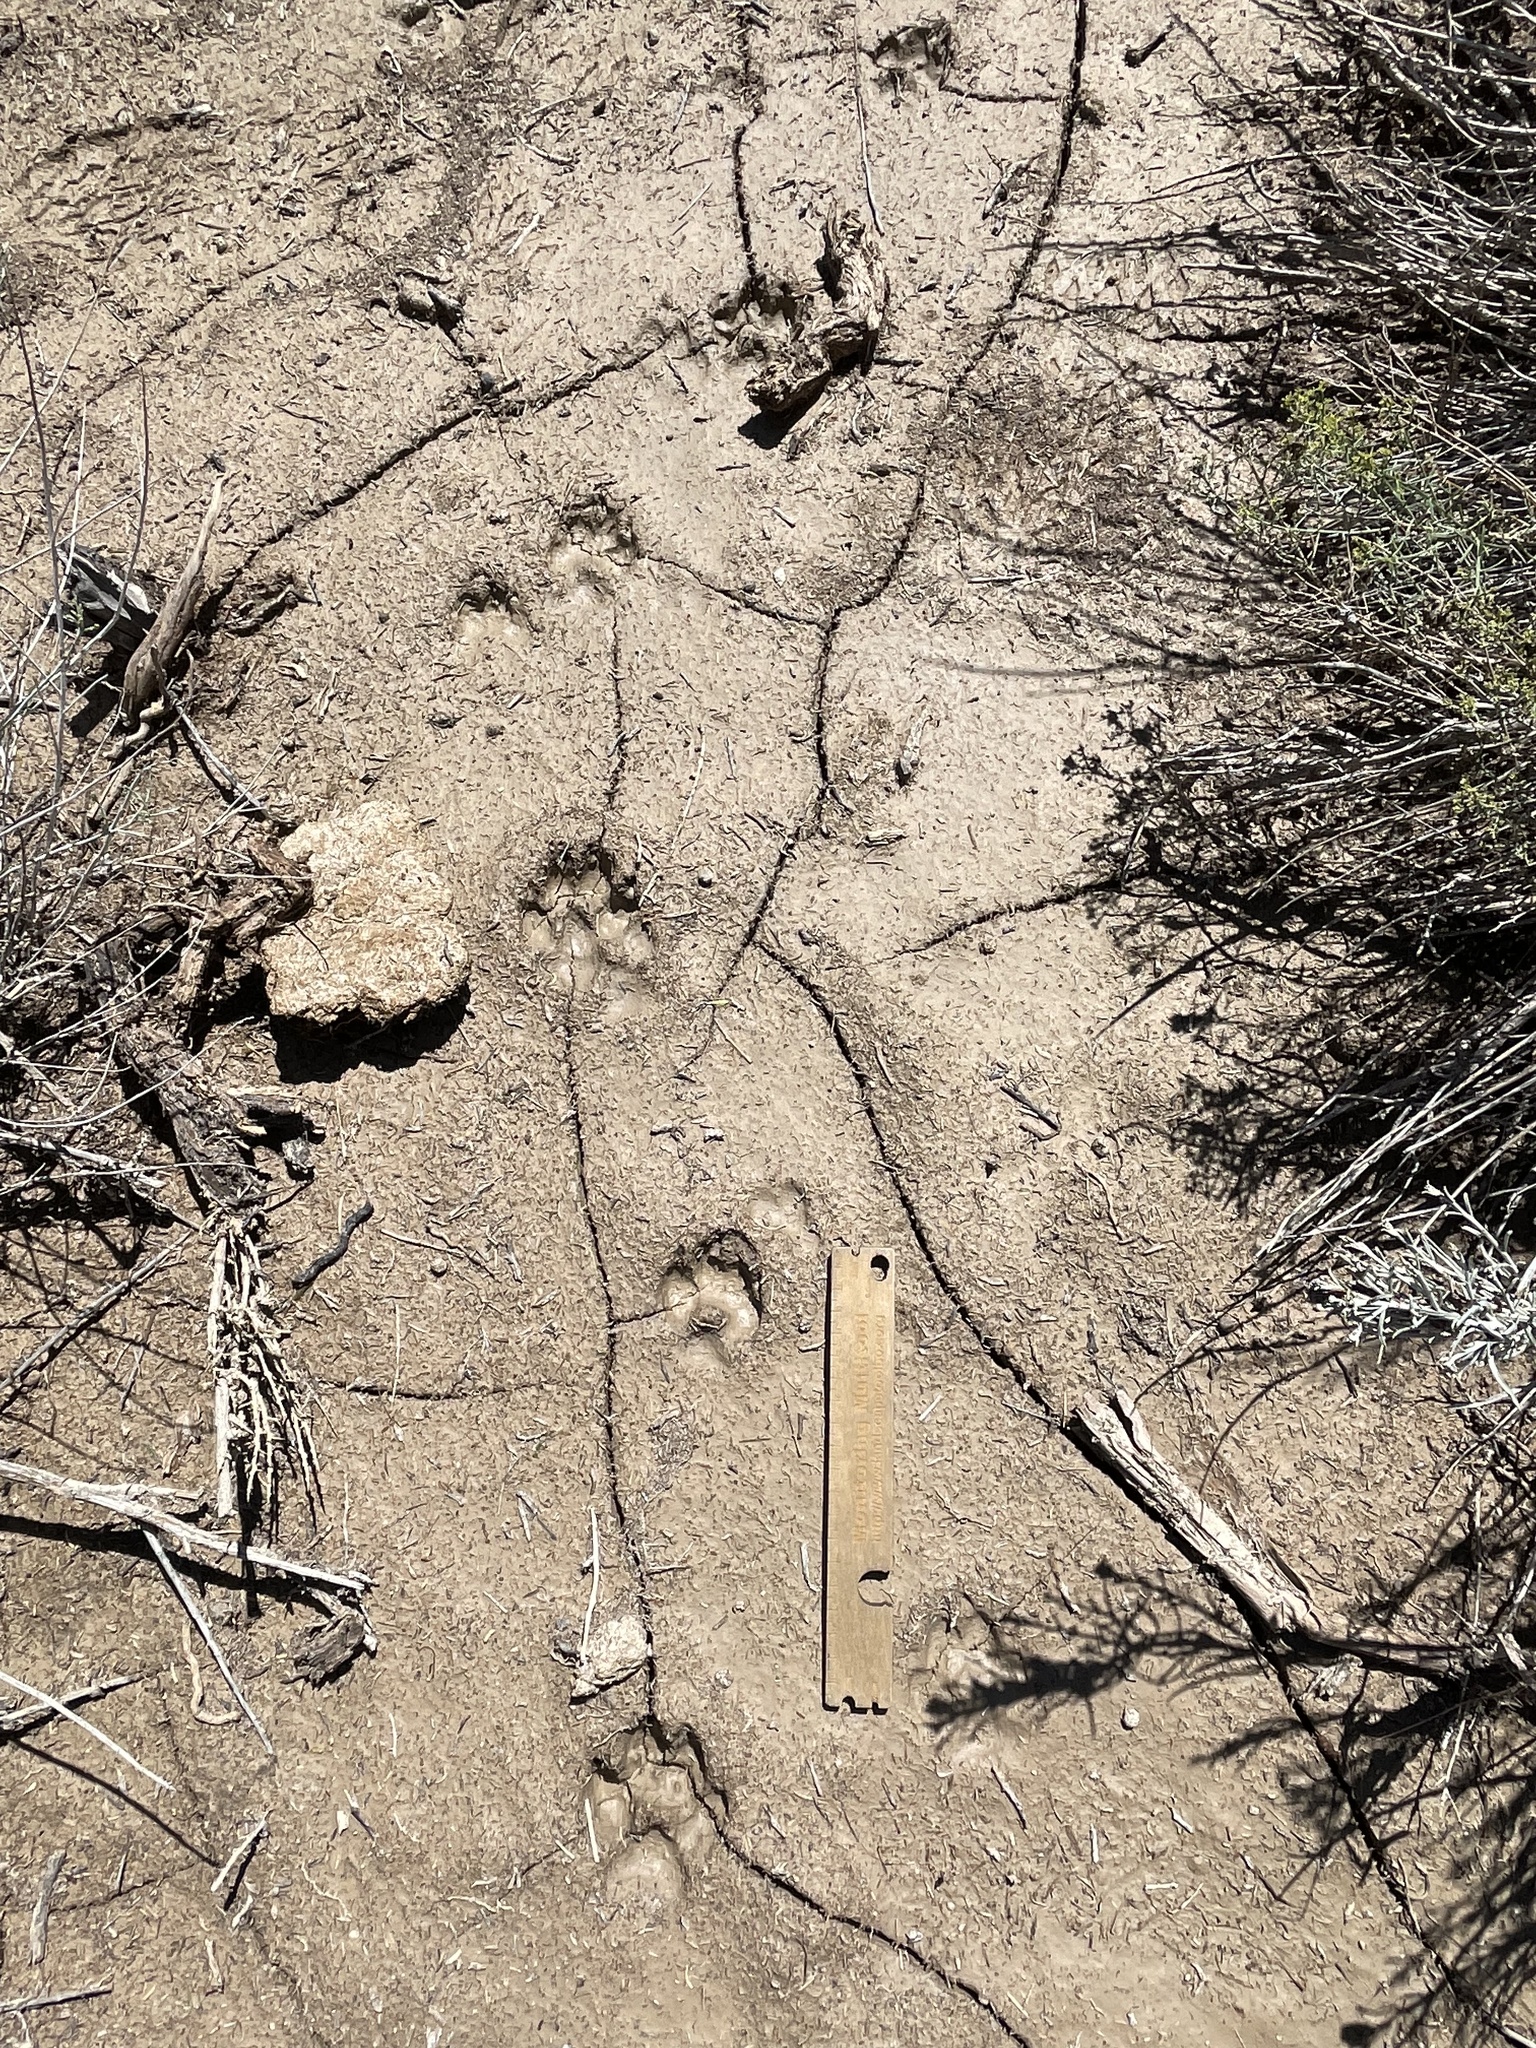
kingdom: Animalia
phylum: Chordata
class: Mammalia
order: Carnivora
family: Canidae
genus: Canis
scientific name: Canis latrans
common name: Coyote
